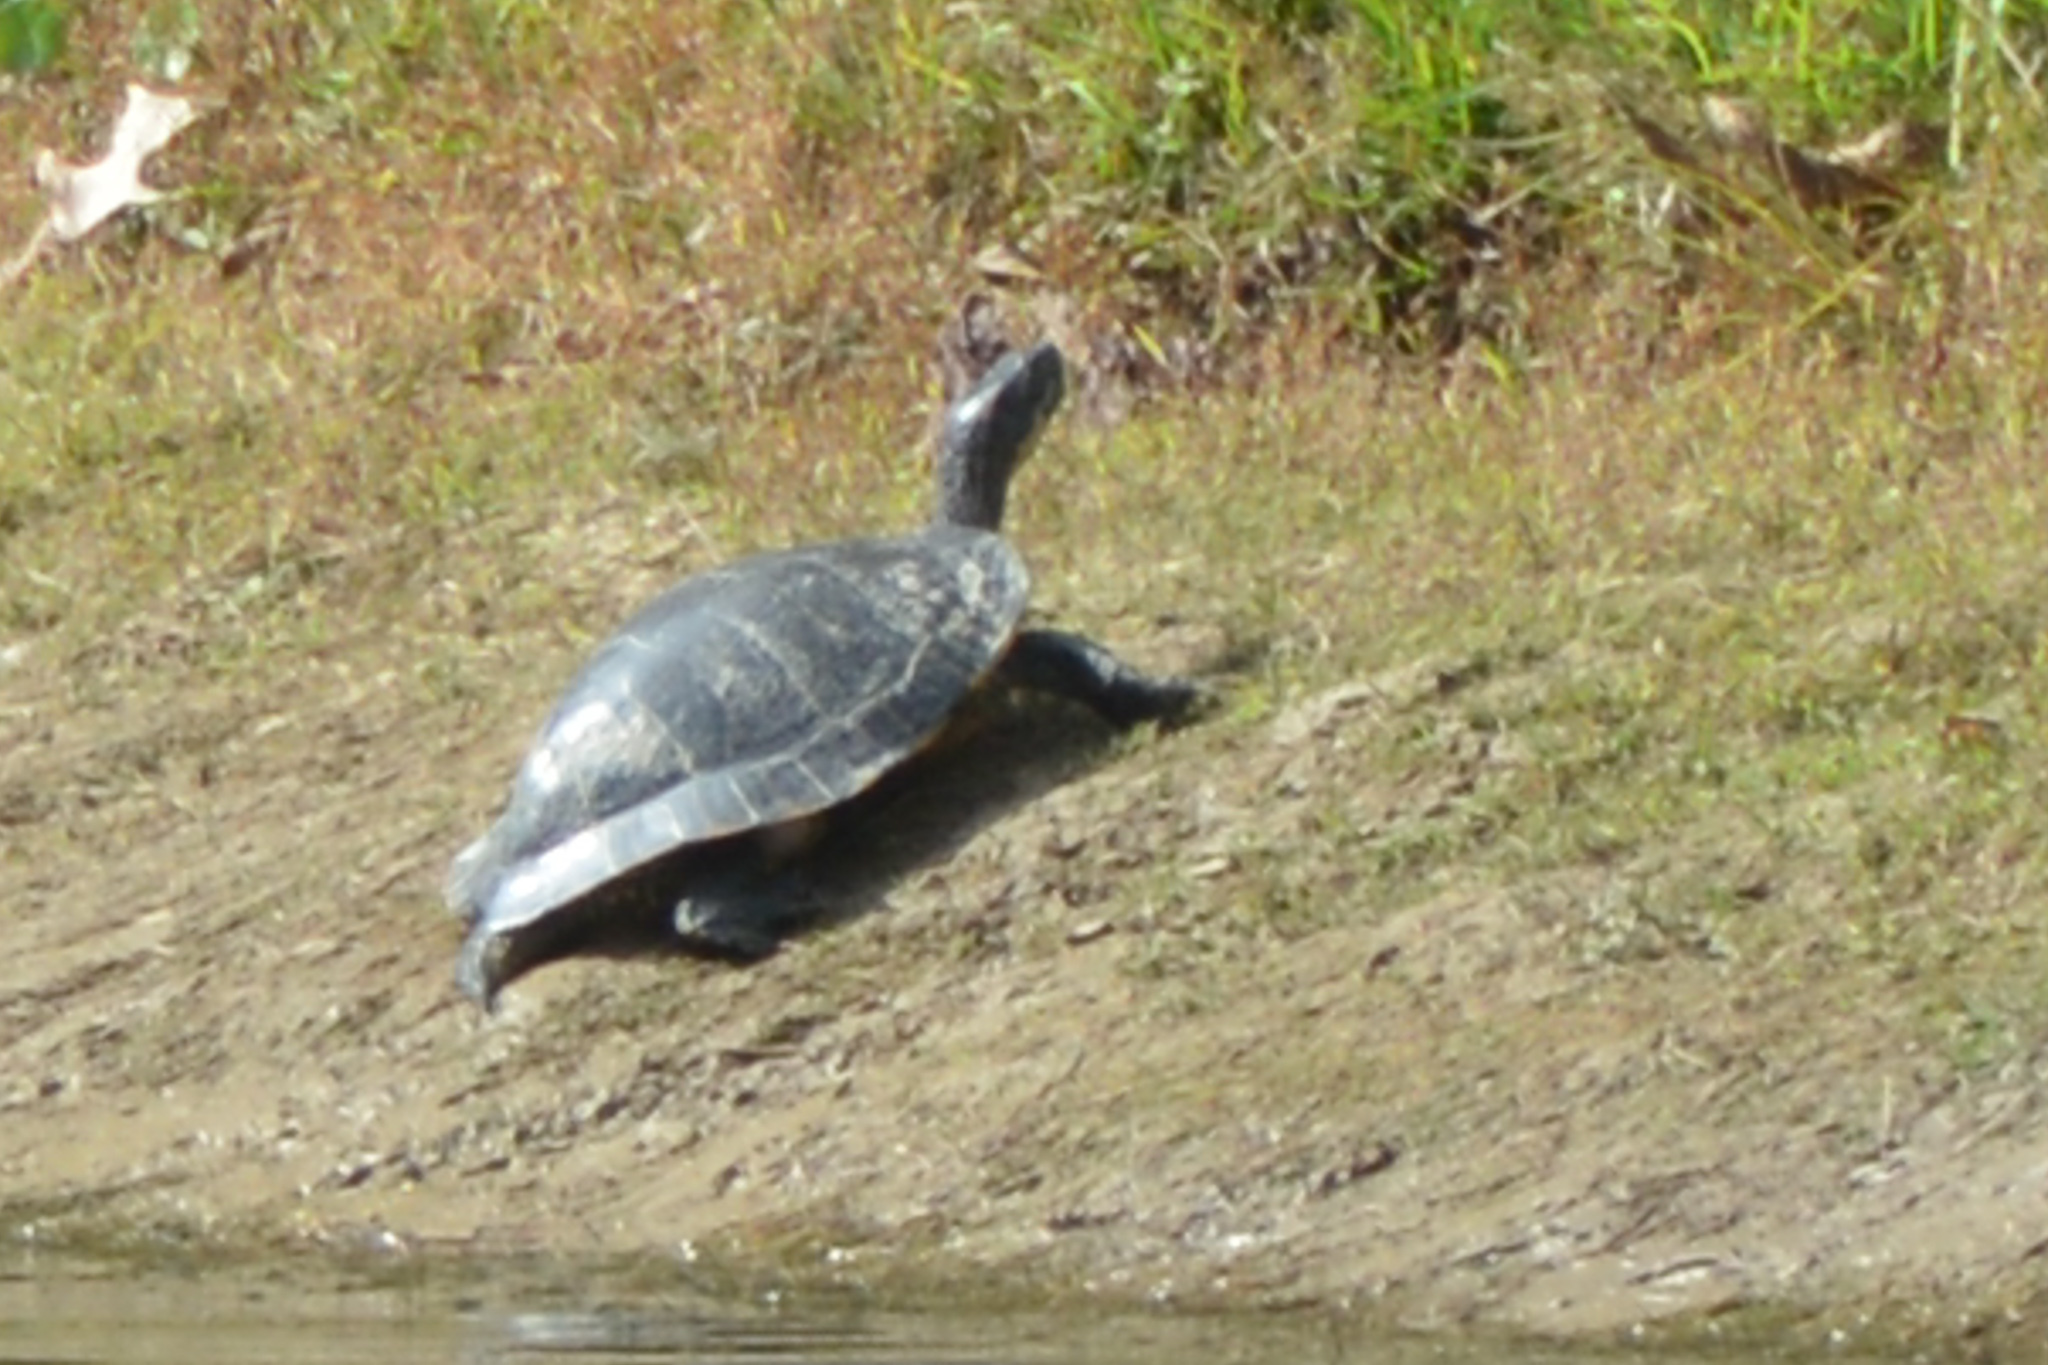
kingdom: Animalia
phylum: Chordata
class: Testudines
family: Emydidae
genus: Pseudemys
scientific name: Pseudemys concinna
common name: Eastern river cooter
